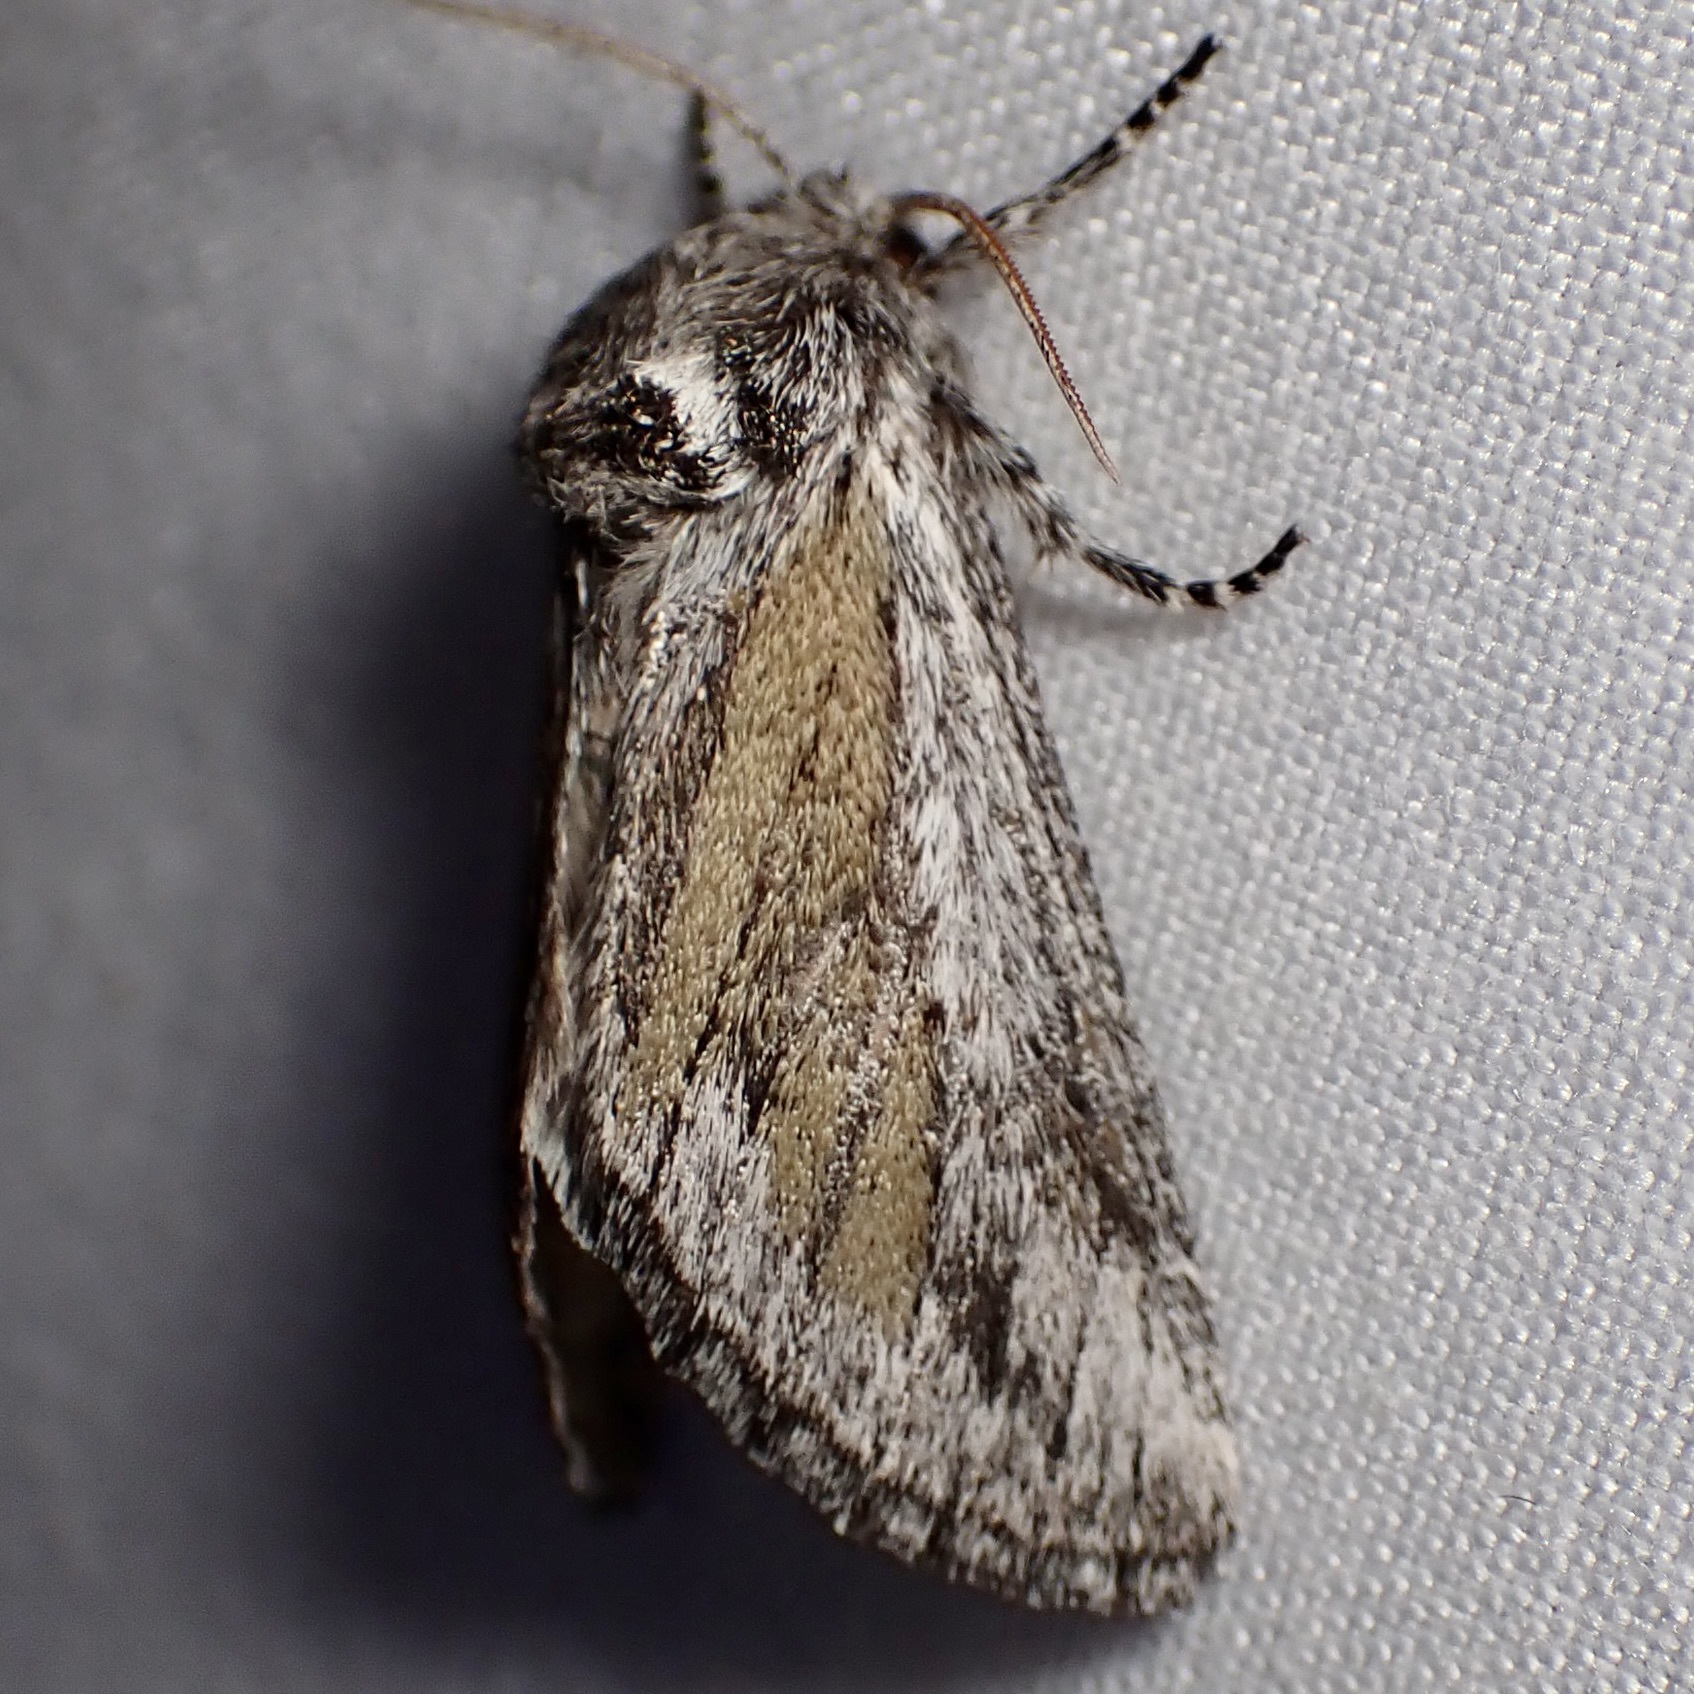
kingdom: Animalia
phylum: Arthropoda
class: Insecta
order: Lepidoptera
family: Notodontidae
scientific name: Notodontidae
